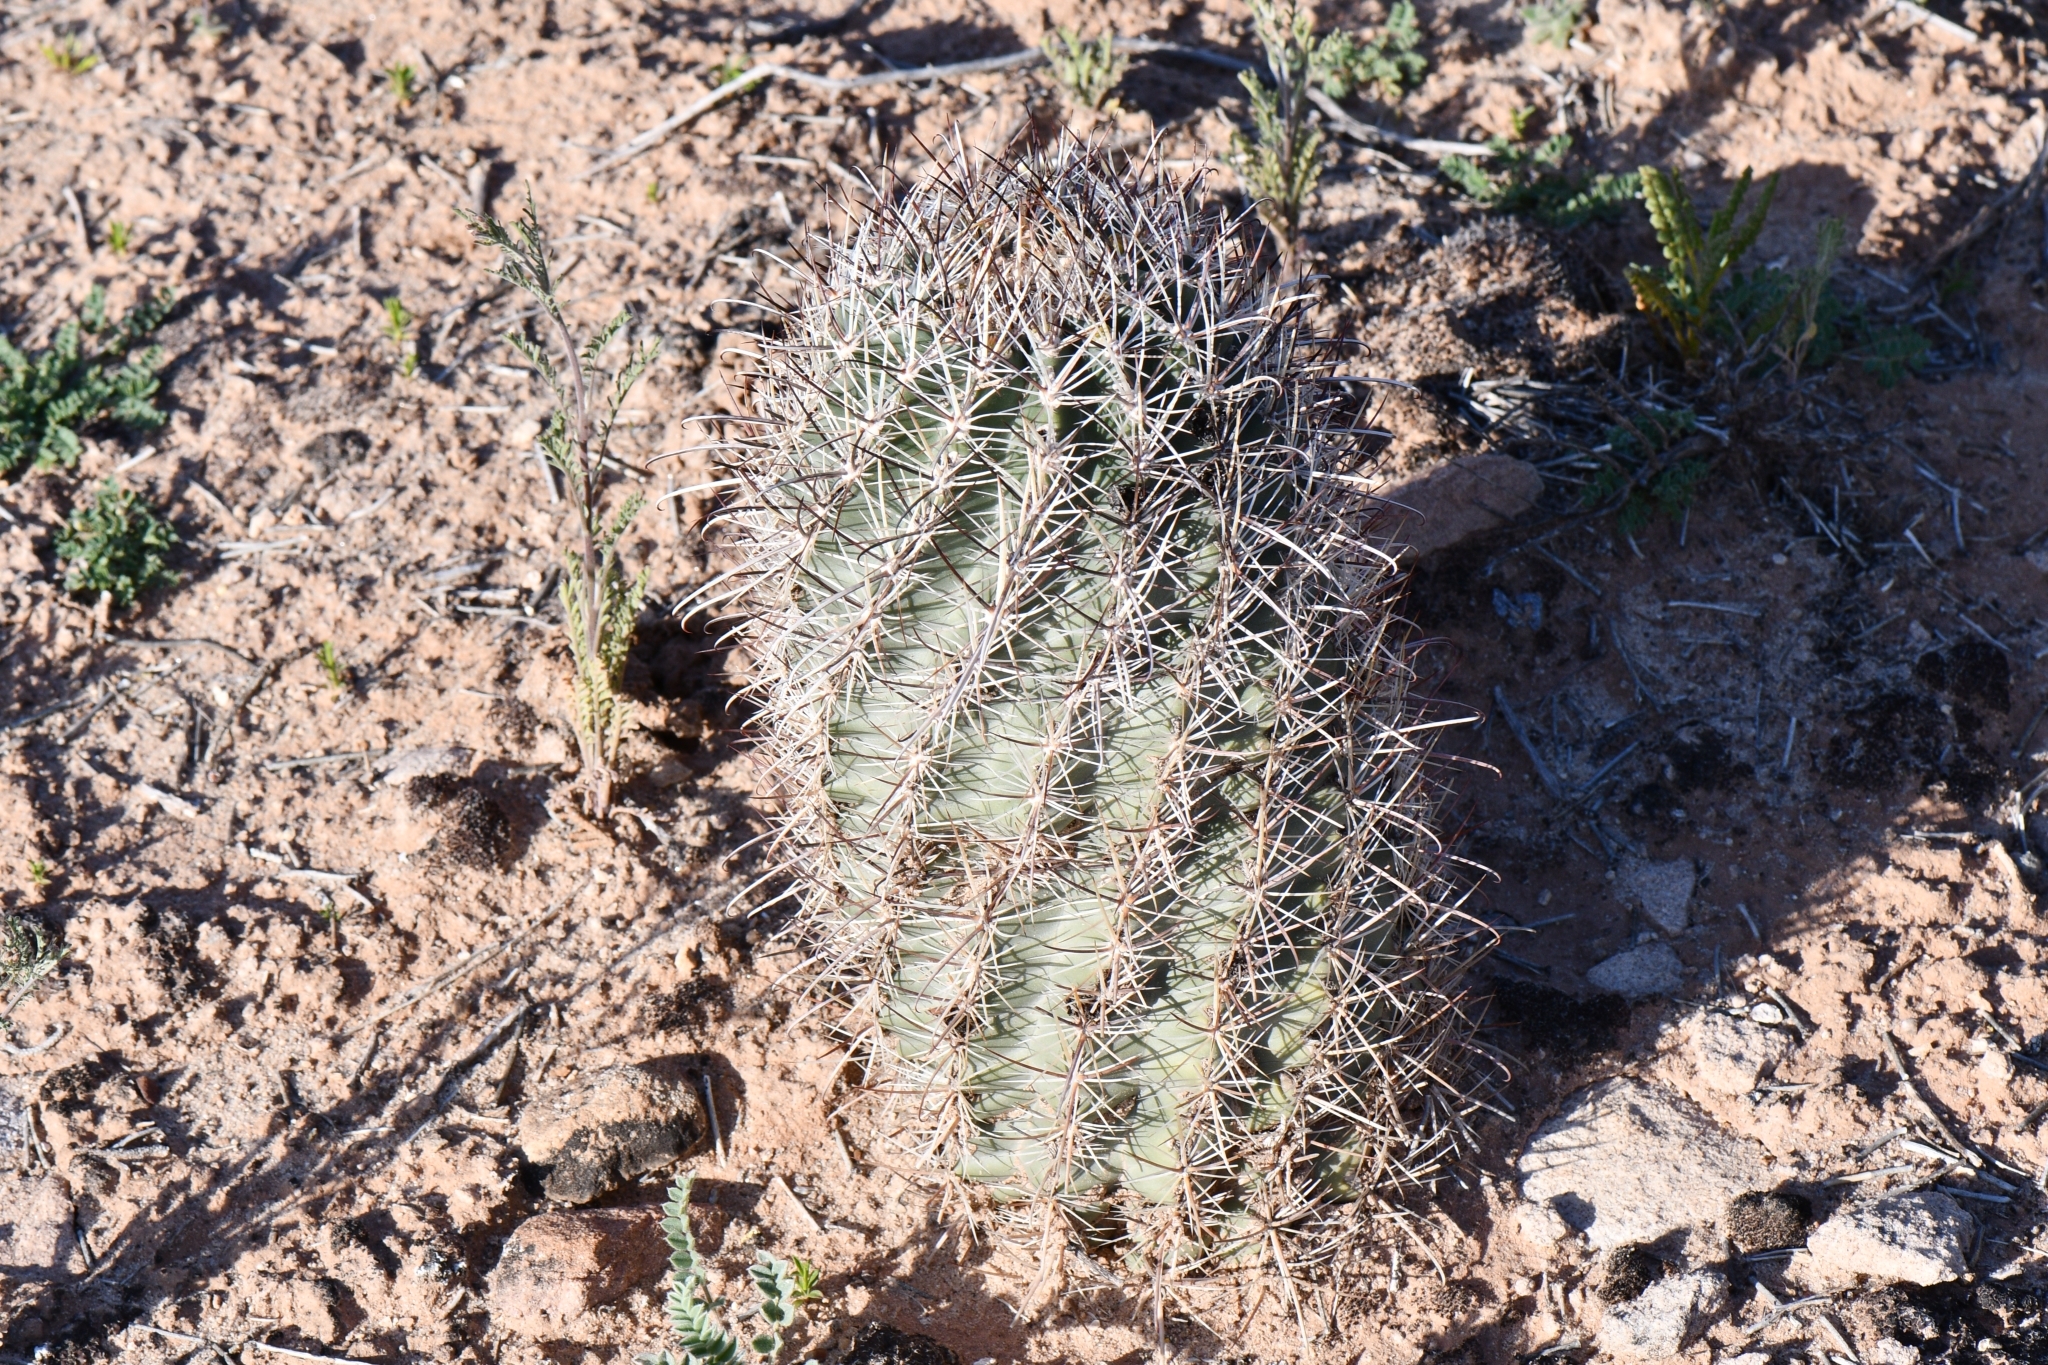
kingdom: Plantae
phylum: Tracheophyta
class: Magnoliopsida
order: Caryophyllales
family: Cactaceae
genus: Sclerocactus
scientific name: Sclerocactus parviflorus
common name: Small-flower fishhook cactus
